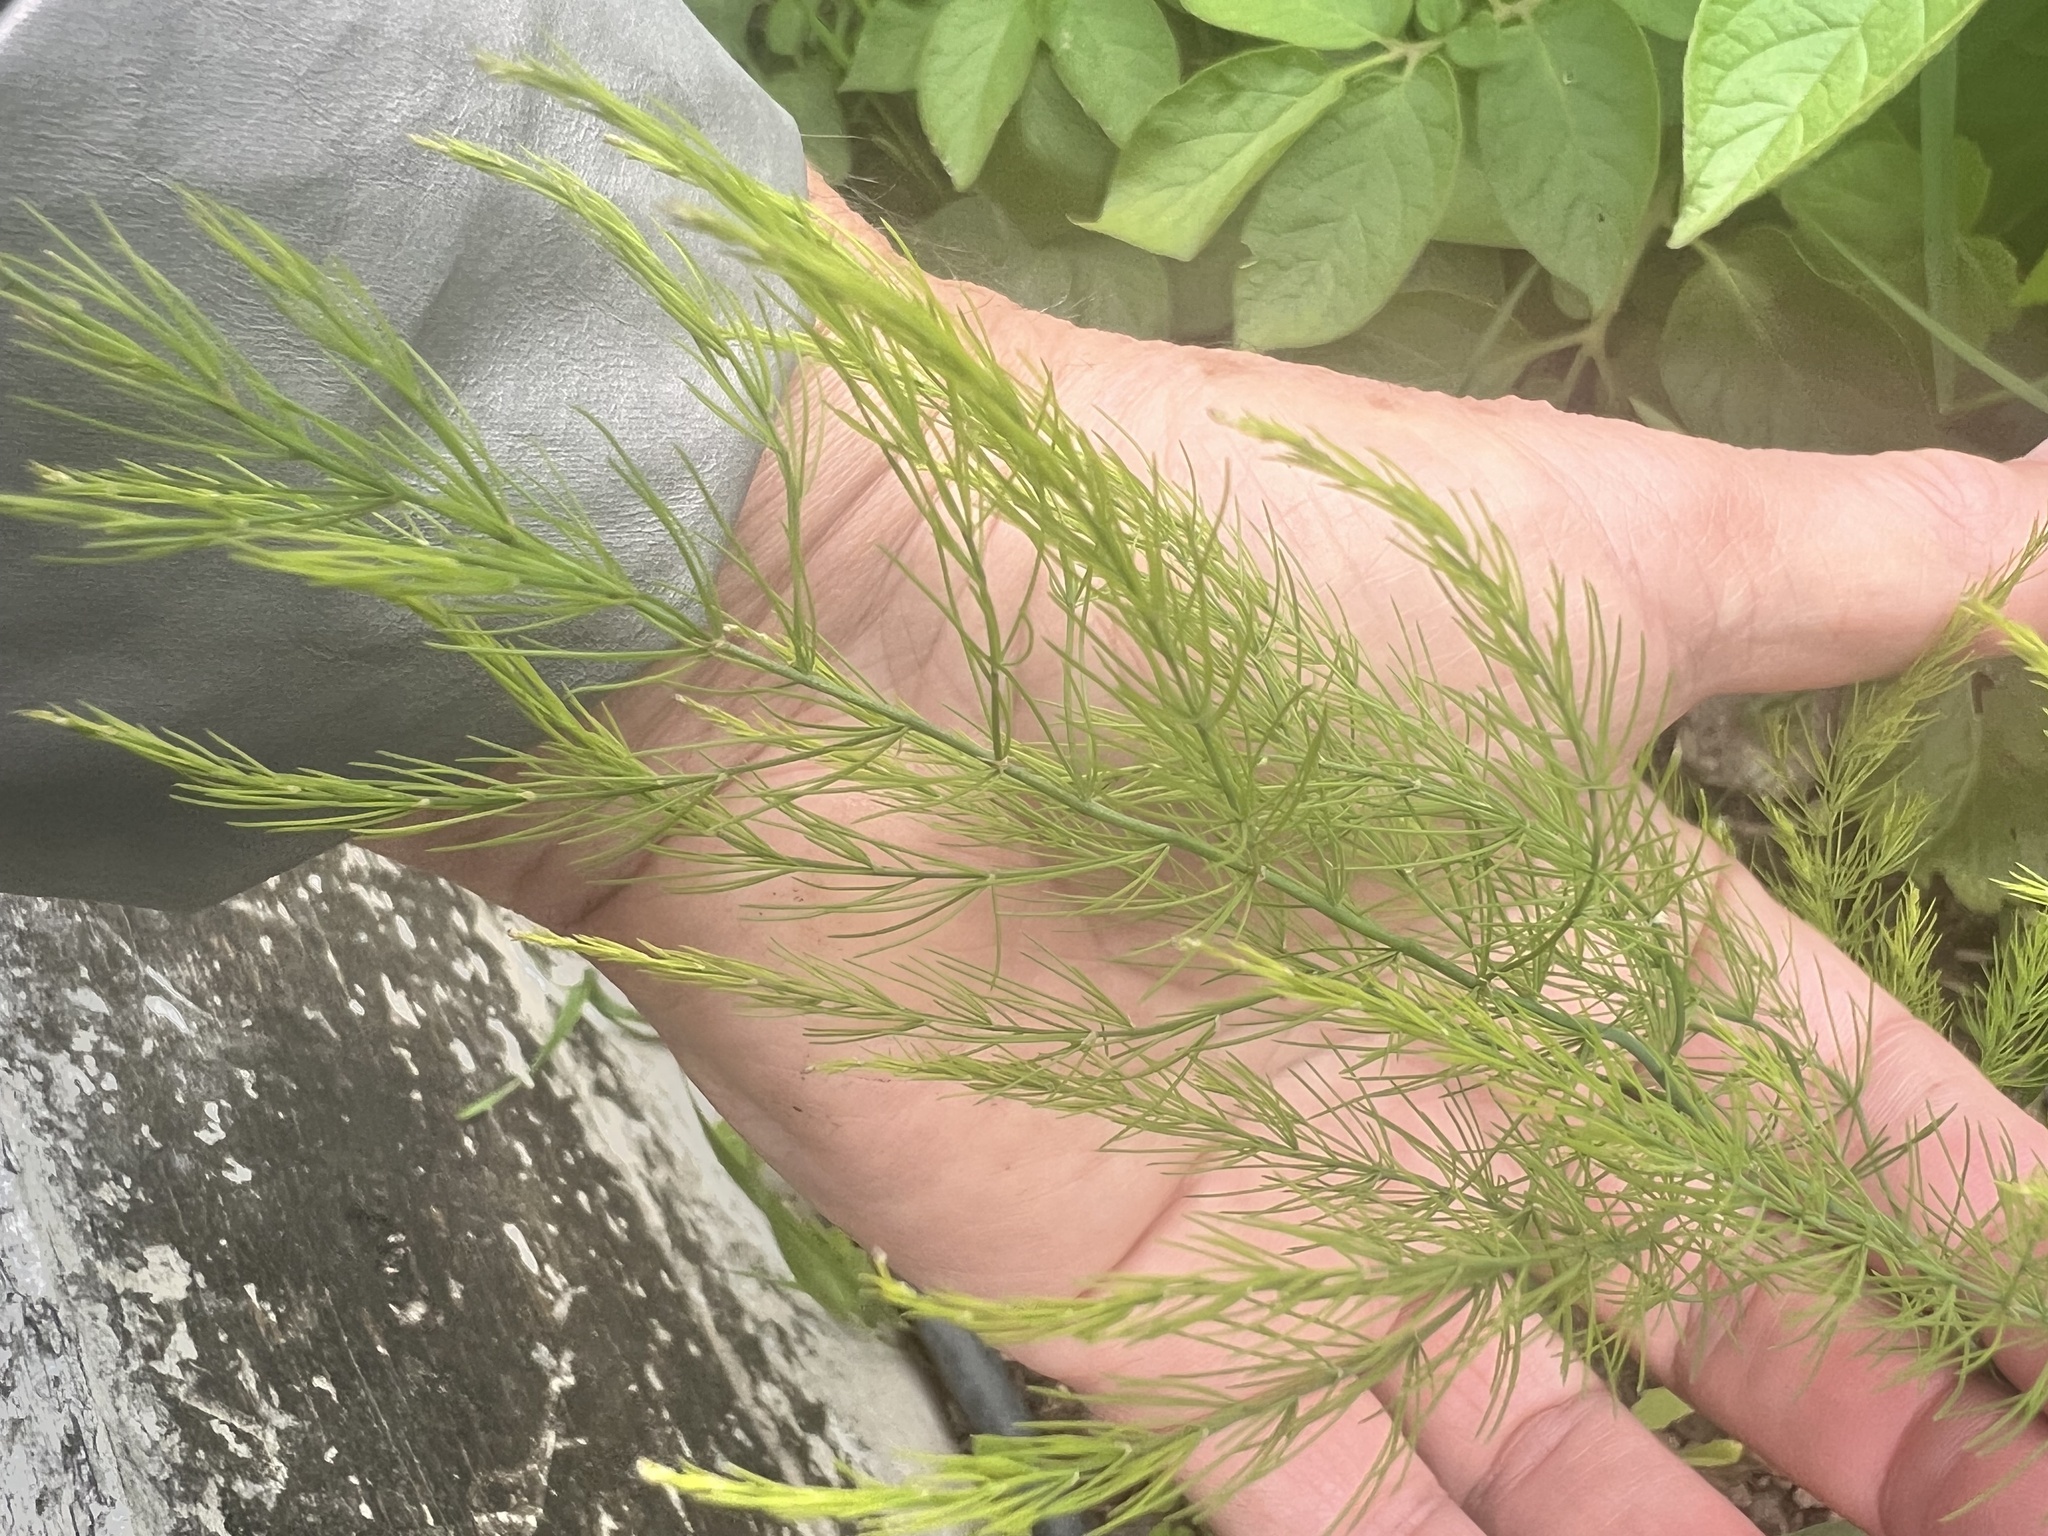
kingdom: Plantae
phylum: Tracheophyta
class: Liliopsida
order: Asparagales
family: Asparagaceae
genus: Asparagus
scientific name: Asparagus officinalis
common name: Garden asparagus
